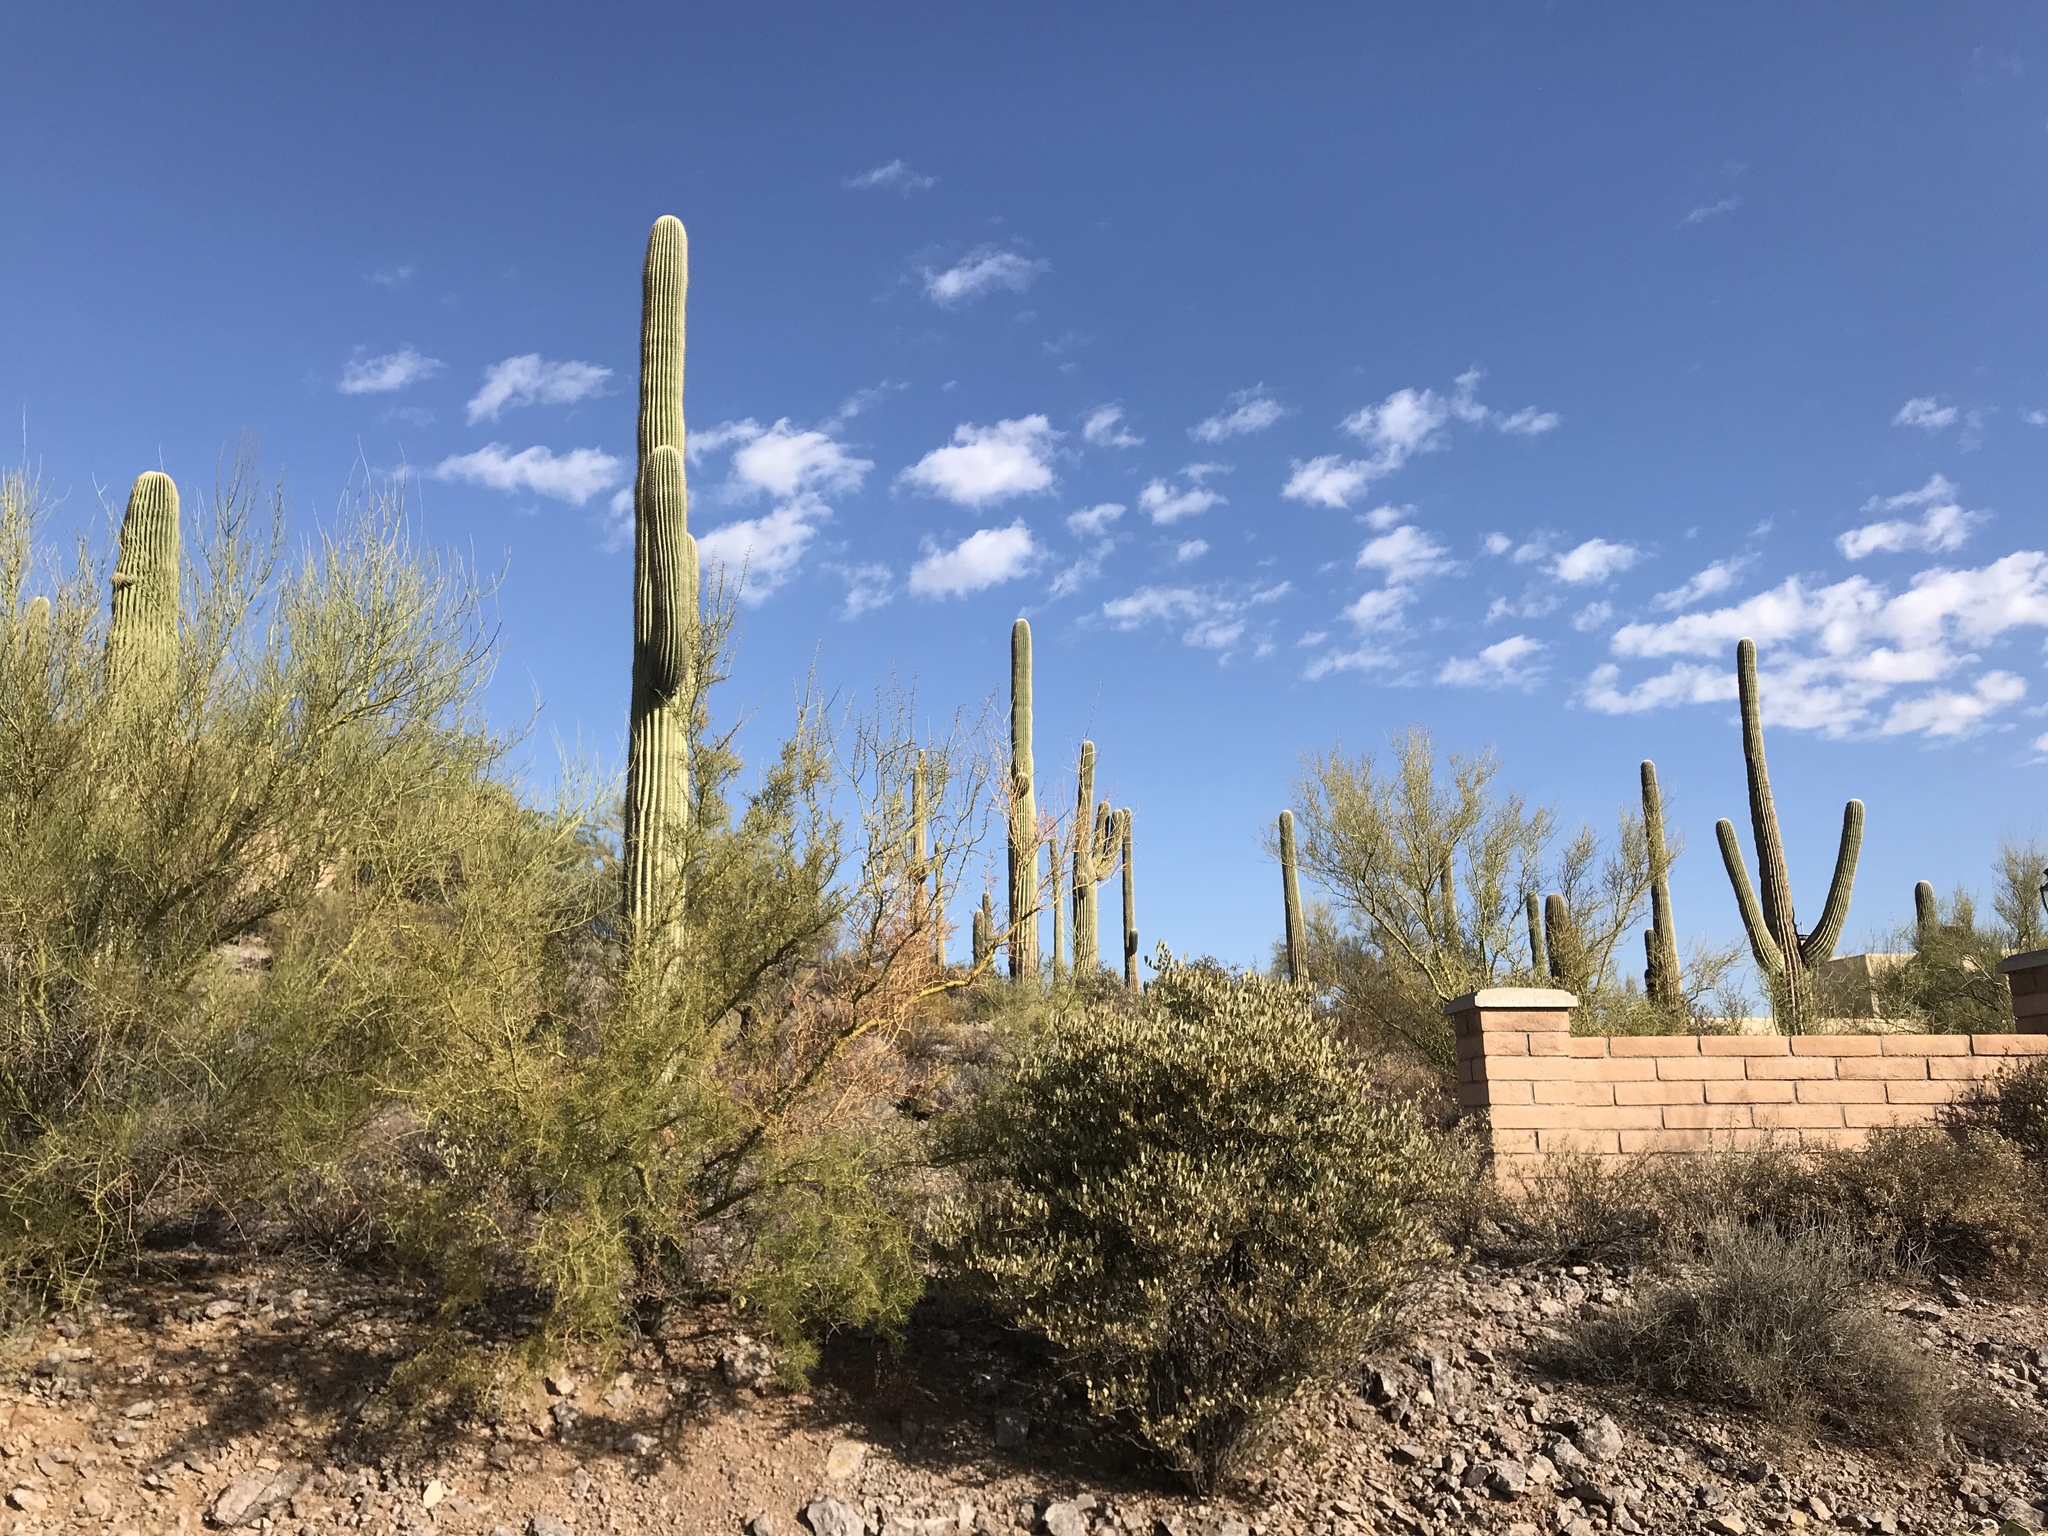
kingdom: Plantae
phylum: Tracheophyta
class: Magnoliopsida
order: Caryophyllales
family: Cactaceae
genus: Carnegiea
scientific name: Carnegiea gigantea
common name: Saguaro
